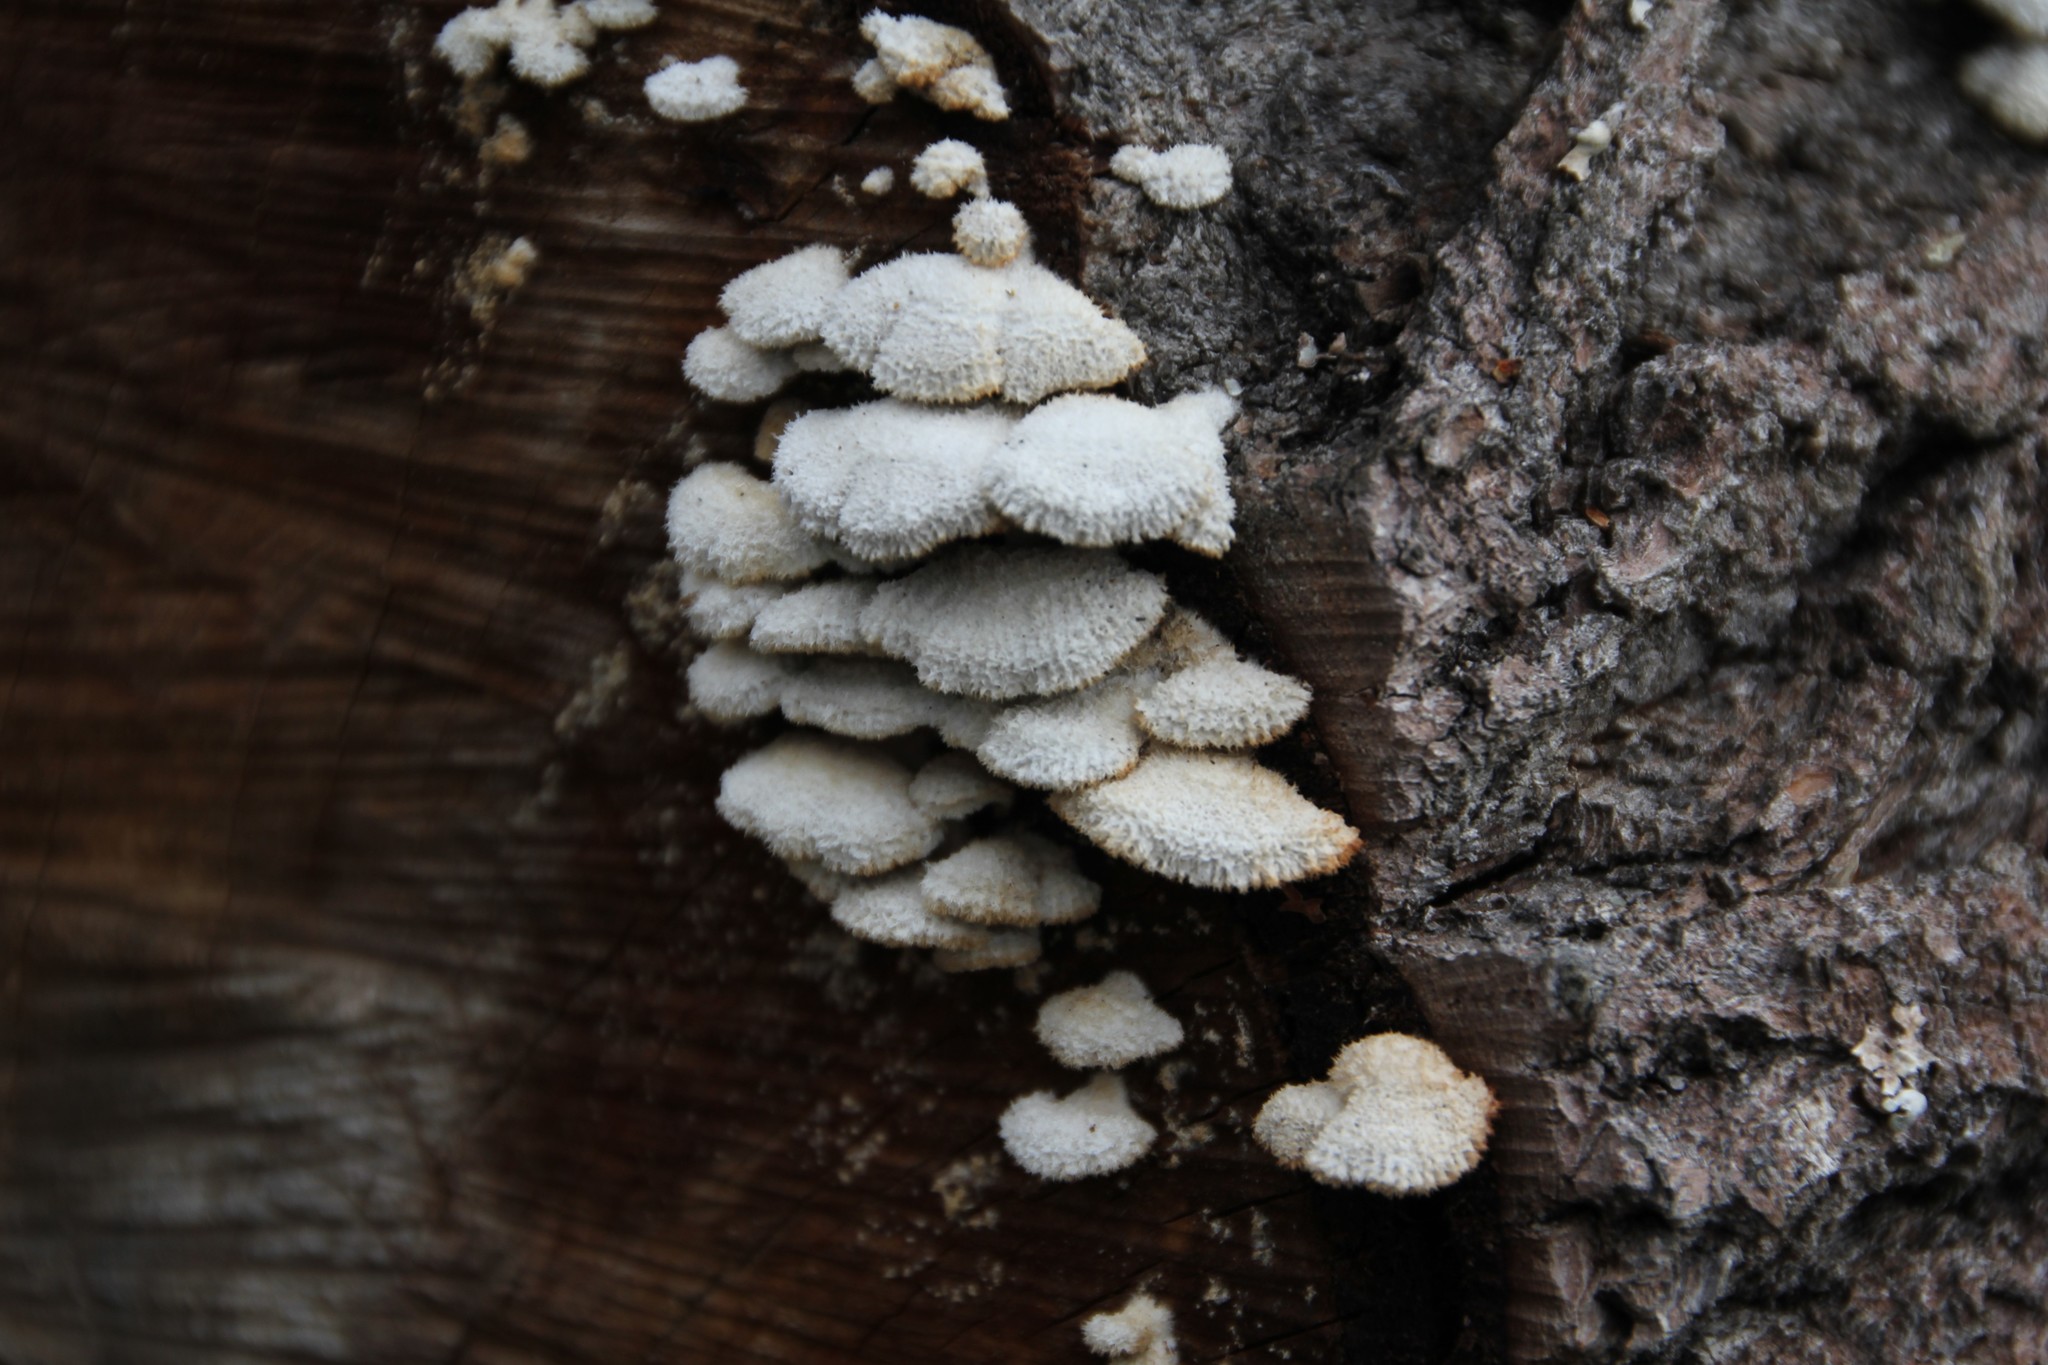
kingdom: Fungi
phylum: Basidiomycota
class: Agaricomycetes
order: Agaricales
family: Schizophyllaceae
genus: Schizophyllum
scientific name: Schizophyllum commune
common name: Common porecrust
